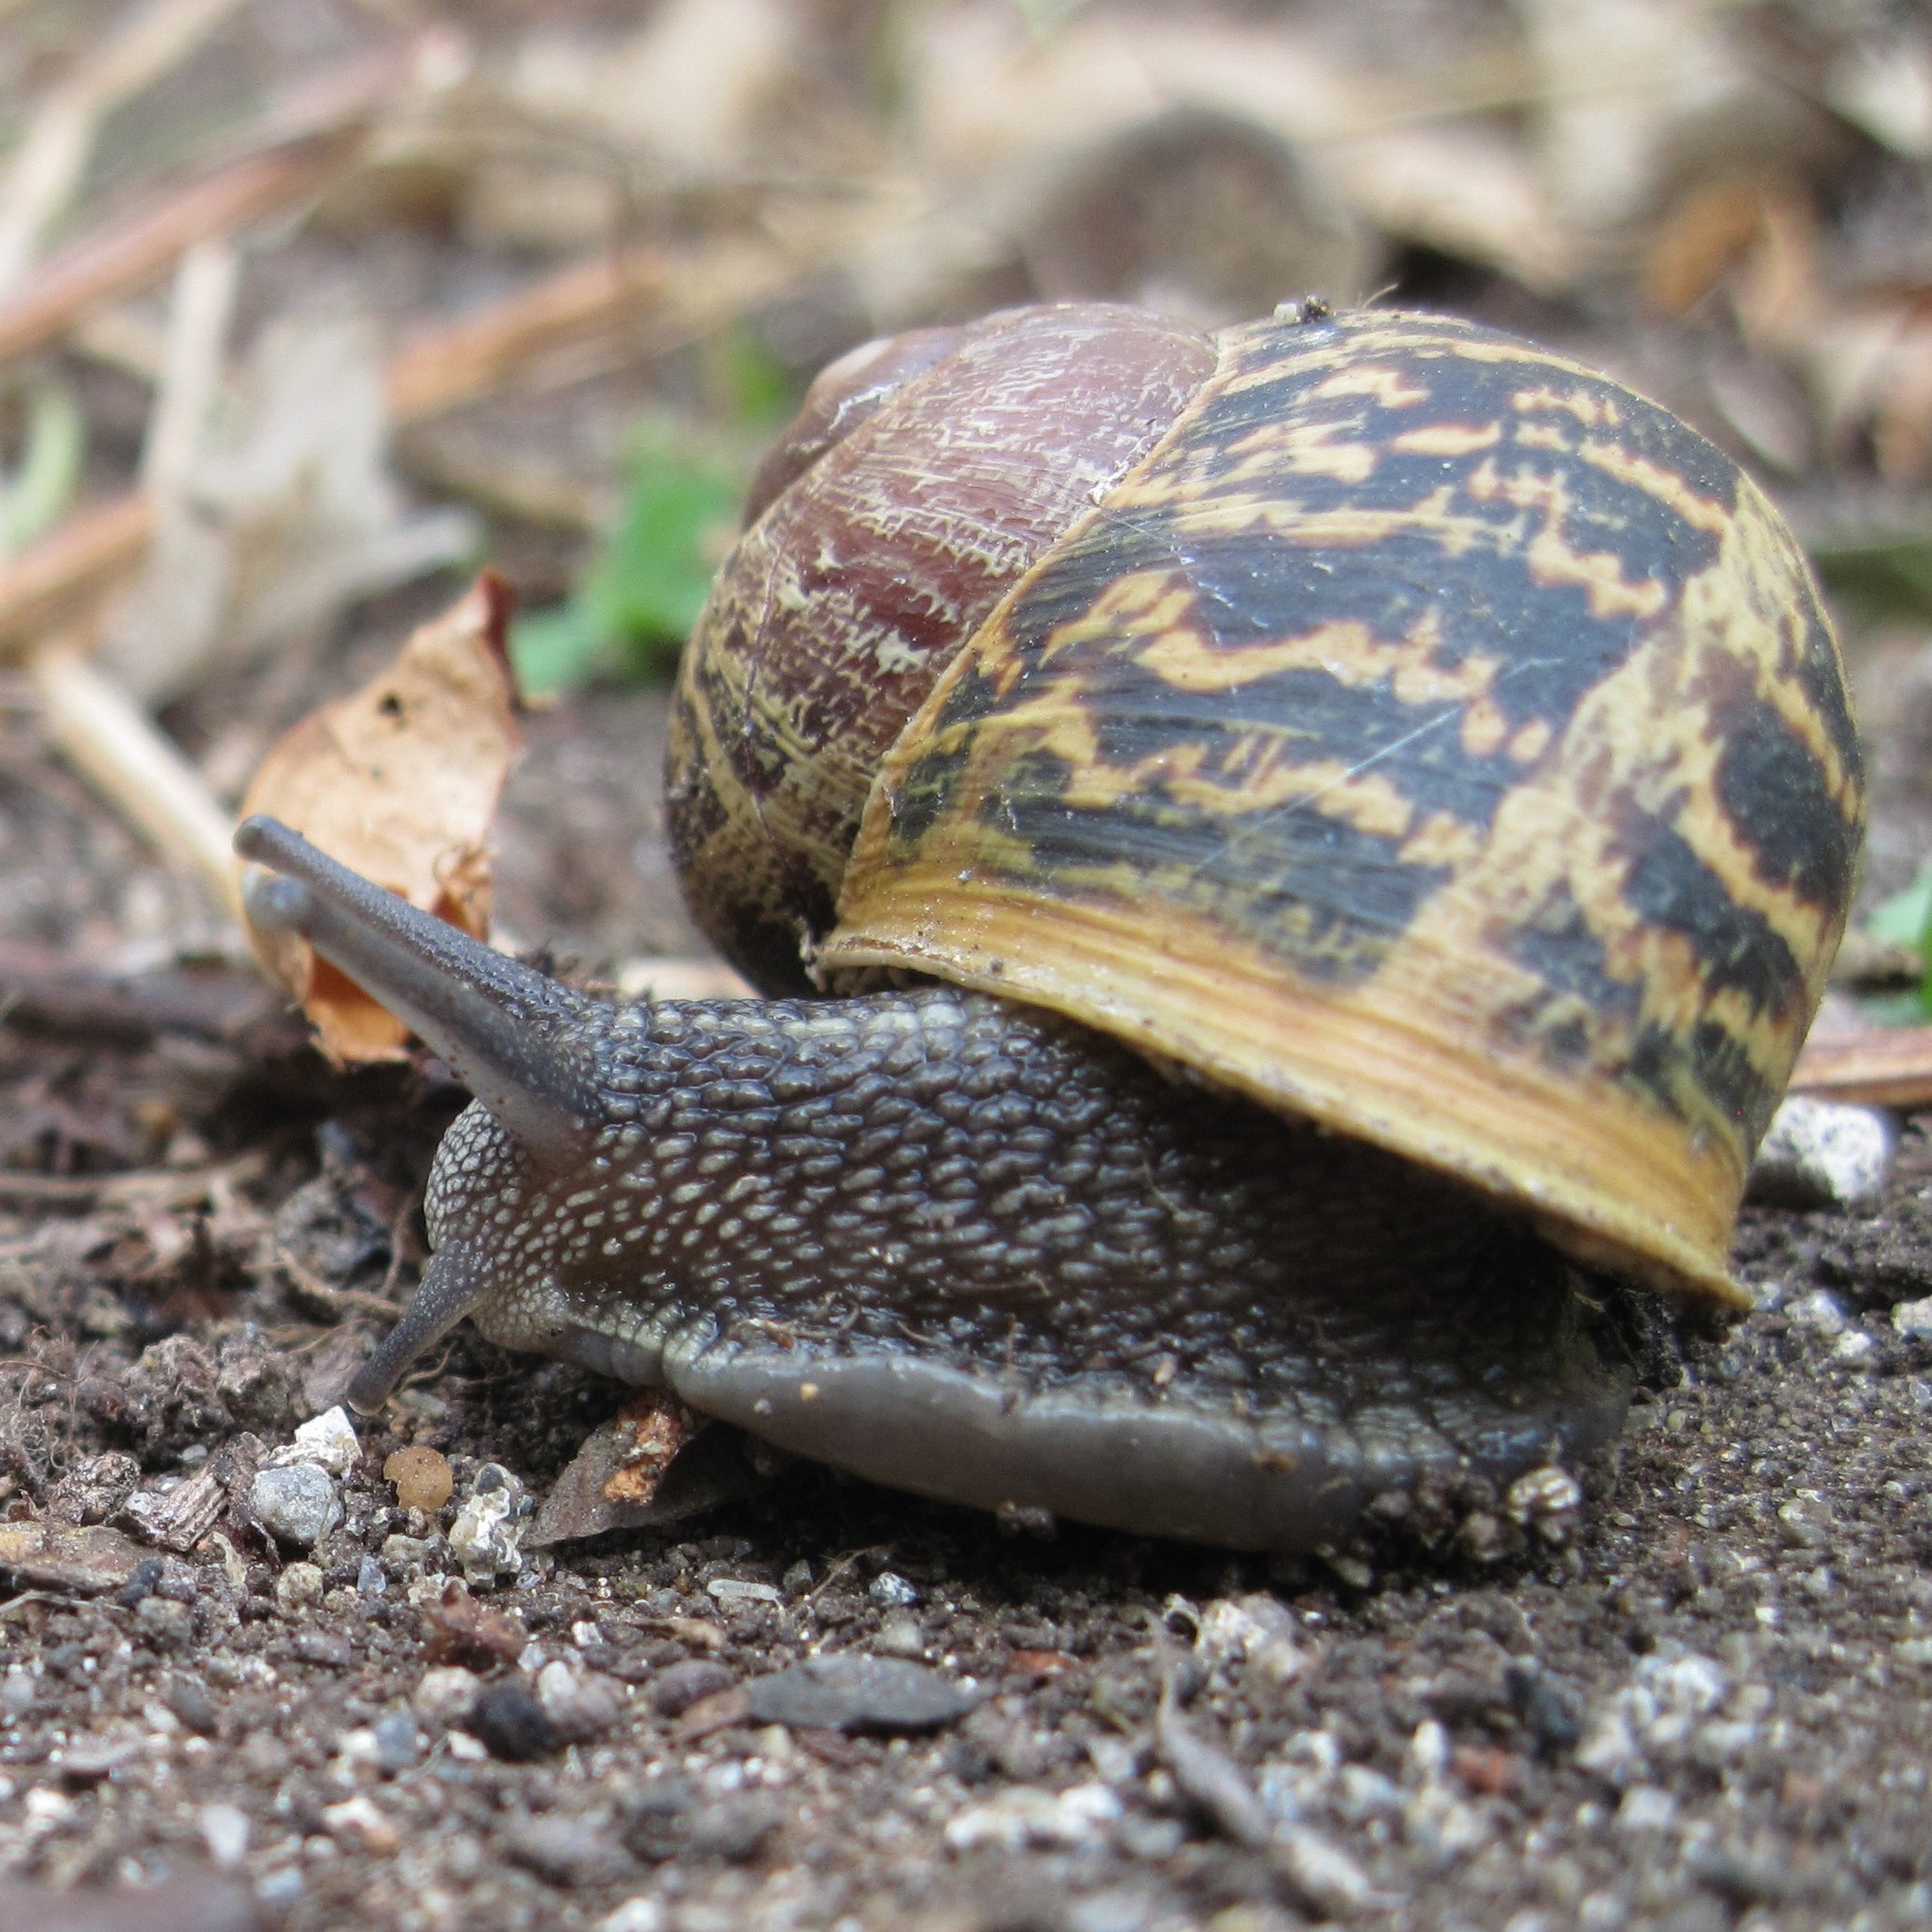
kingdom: Animalia
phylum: Mollusca
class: Gastropoda
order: Stylommatophora
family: Helicidae
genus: Cornu
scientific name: Cornu aspersum
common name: Brown garden snail
